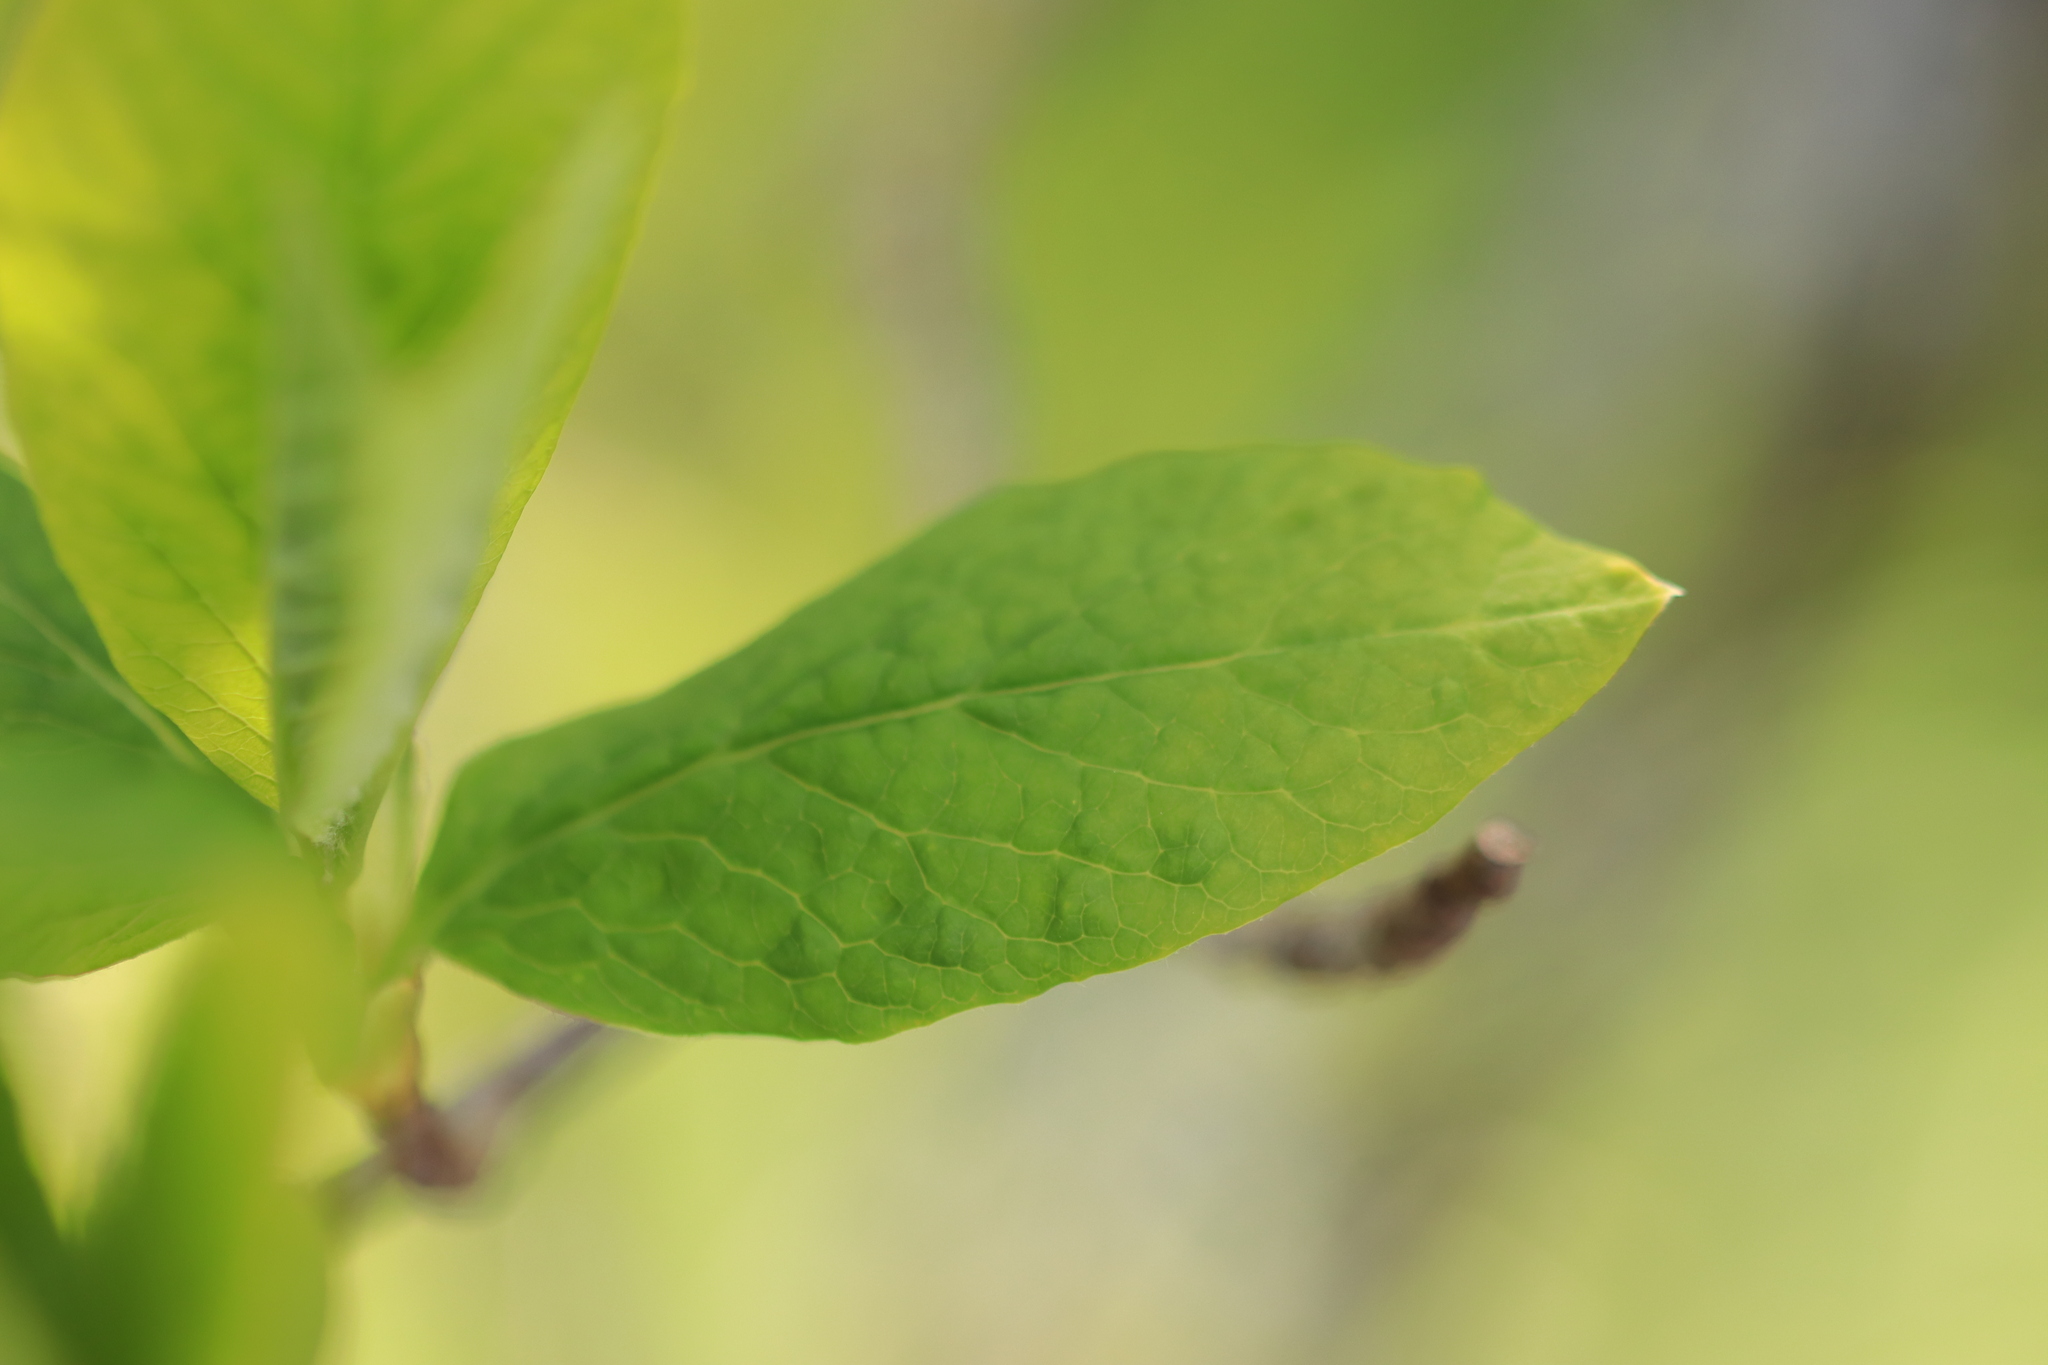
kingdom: Plantae
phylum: Tracheophyta
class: Magnoliopsida
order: Rosales
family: Rosaceae
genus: Oemleria
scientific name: Oemleria cerasiformis
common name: Osoberry
